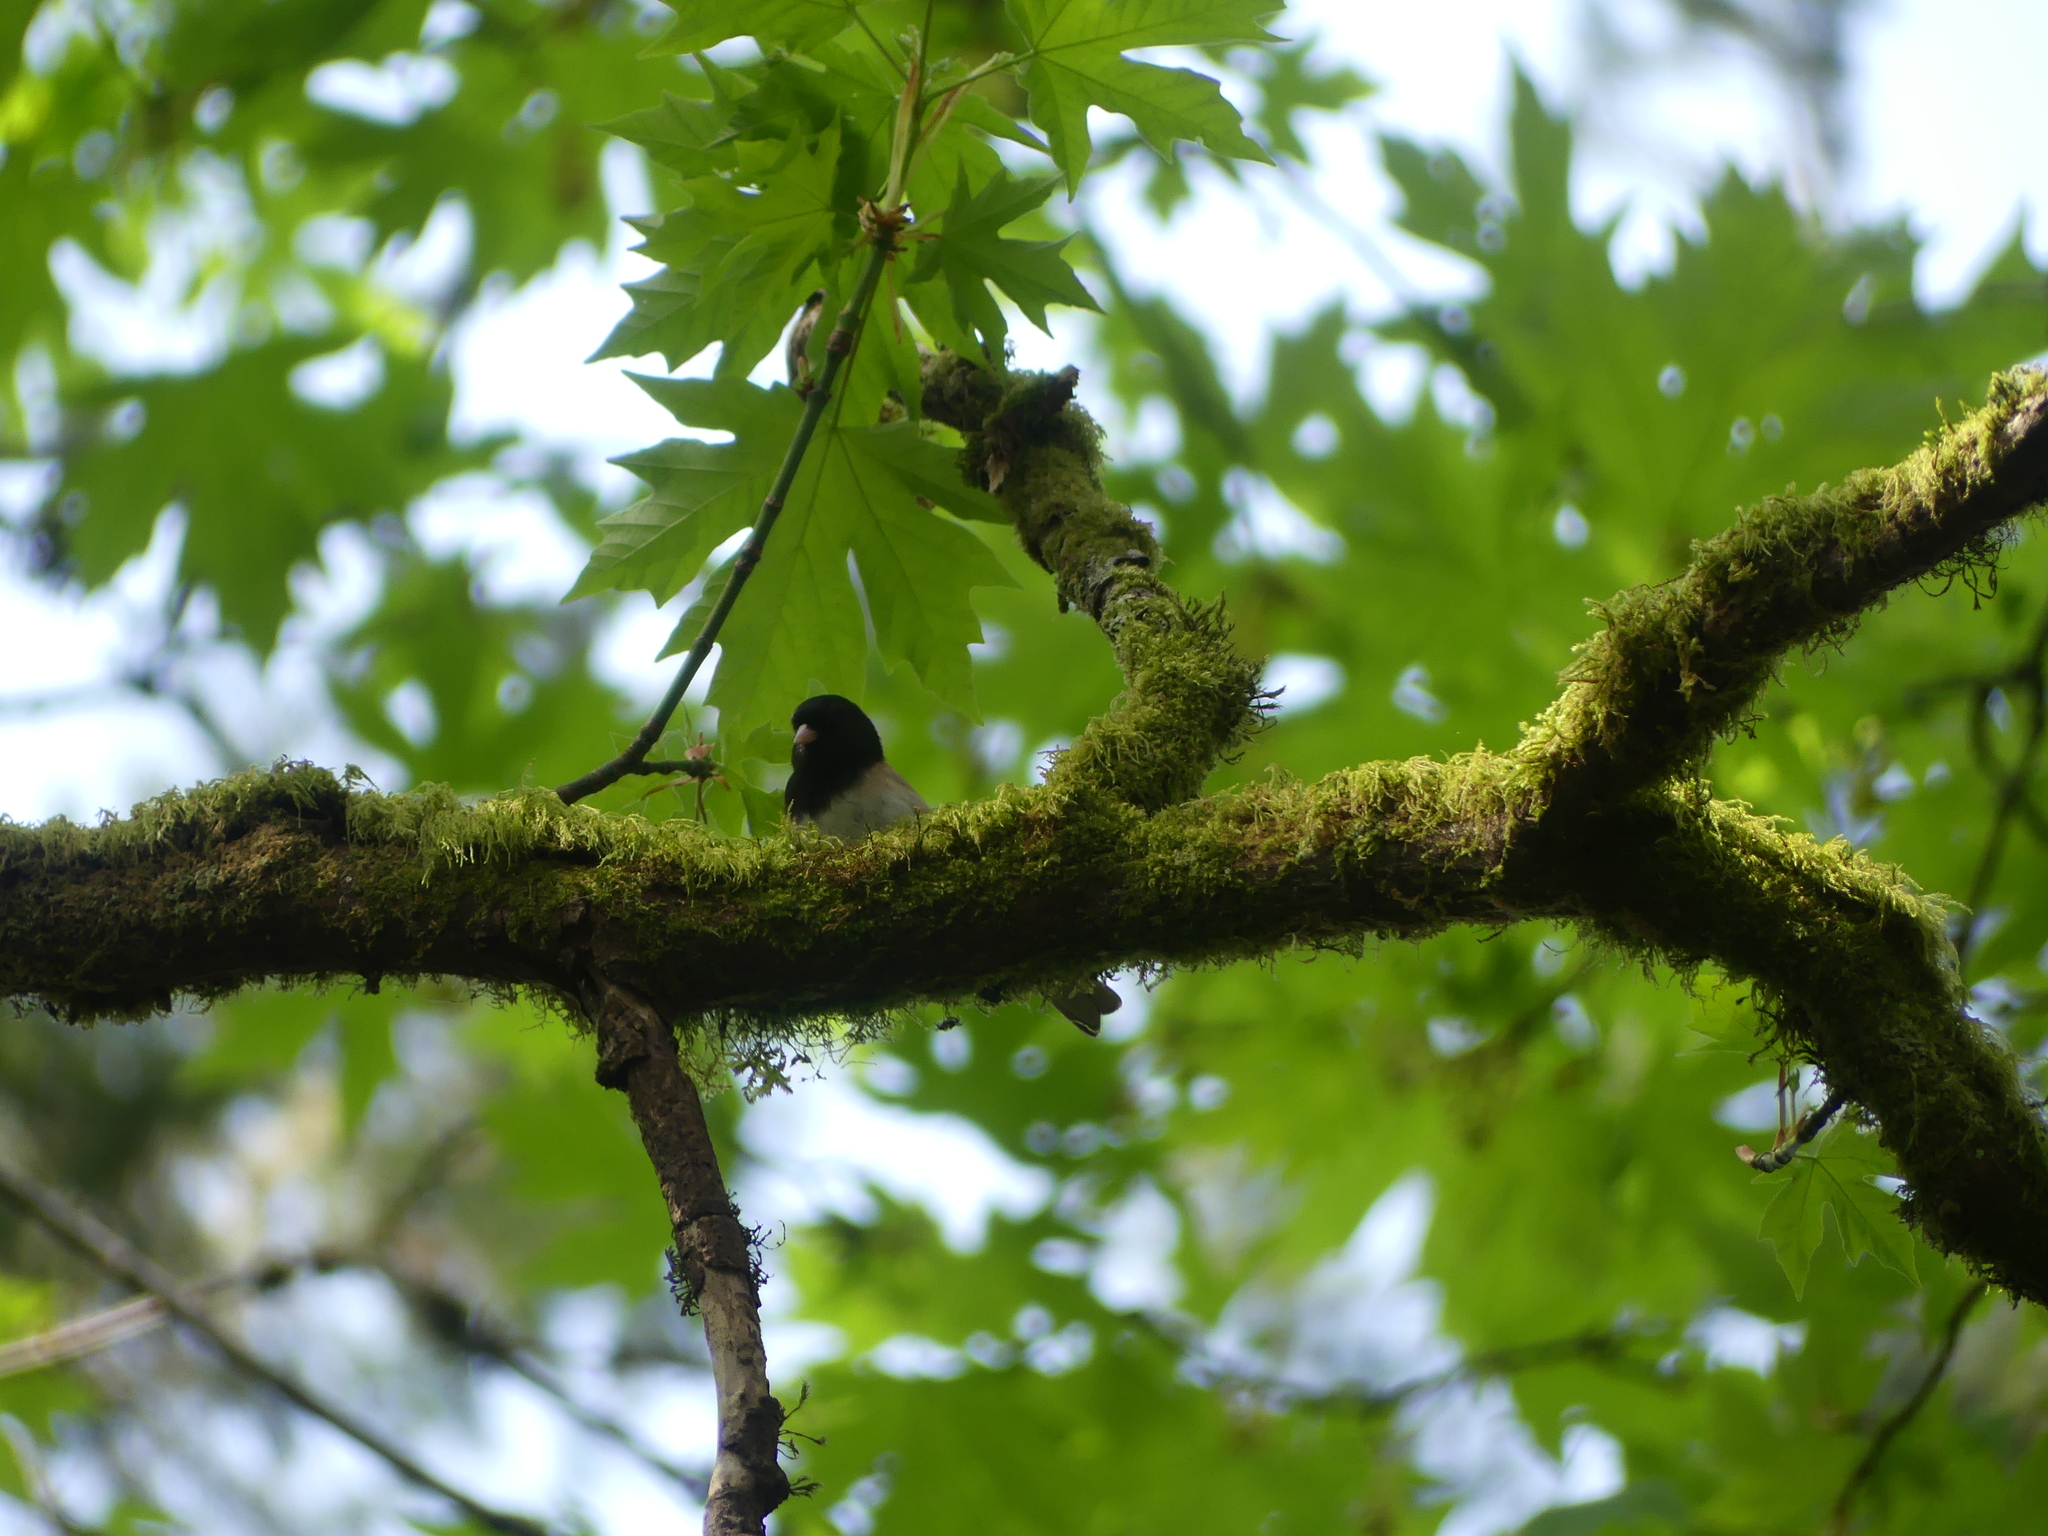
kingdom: Animalia
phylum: Chordata
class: Aves
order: Passeriformes
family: Passerellidae
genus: Junco
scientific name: Junco hyemalis
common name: Dark-eyed junco
